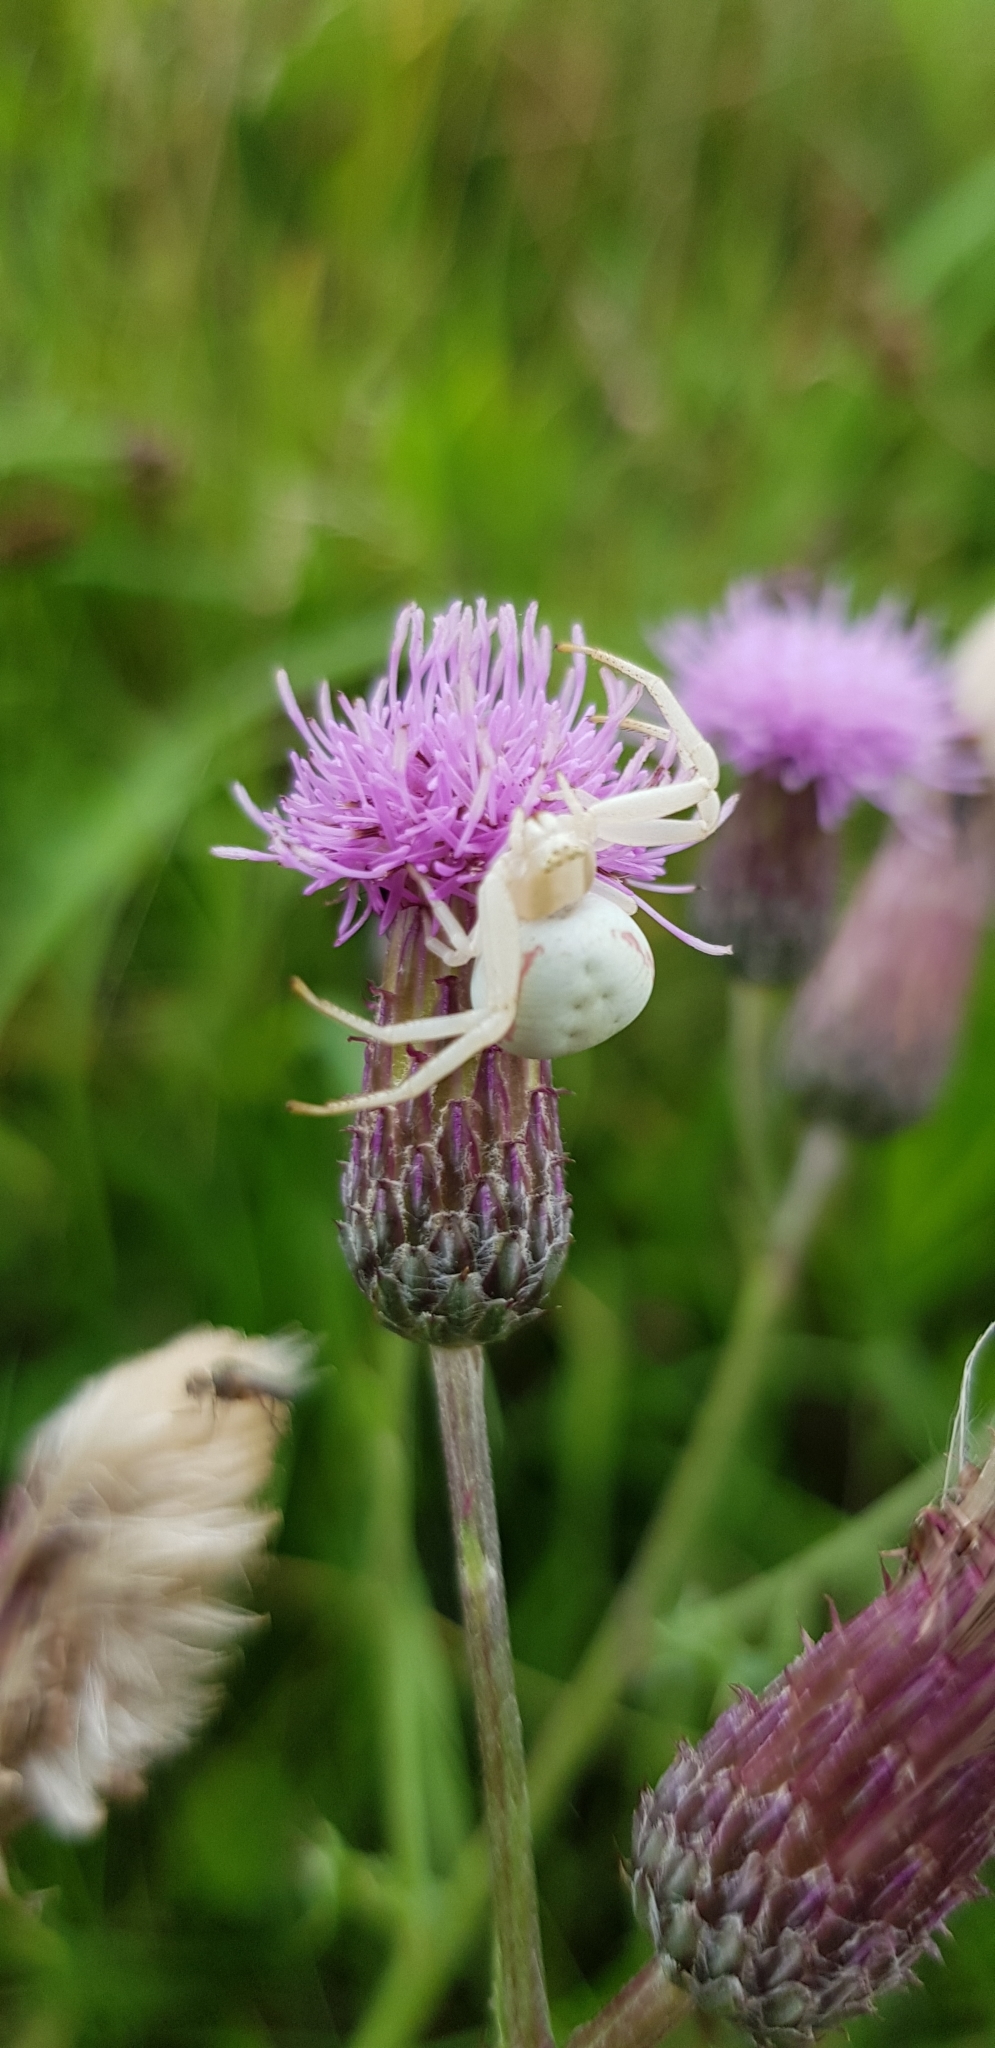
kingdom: Animalia
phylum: Arthropoda
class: Arachnida
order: Araneae
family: Thomisidae
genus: Misumena
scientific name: Misumena vatia
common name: Goldenrod crab spider
